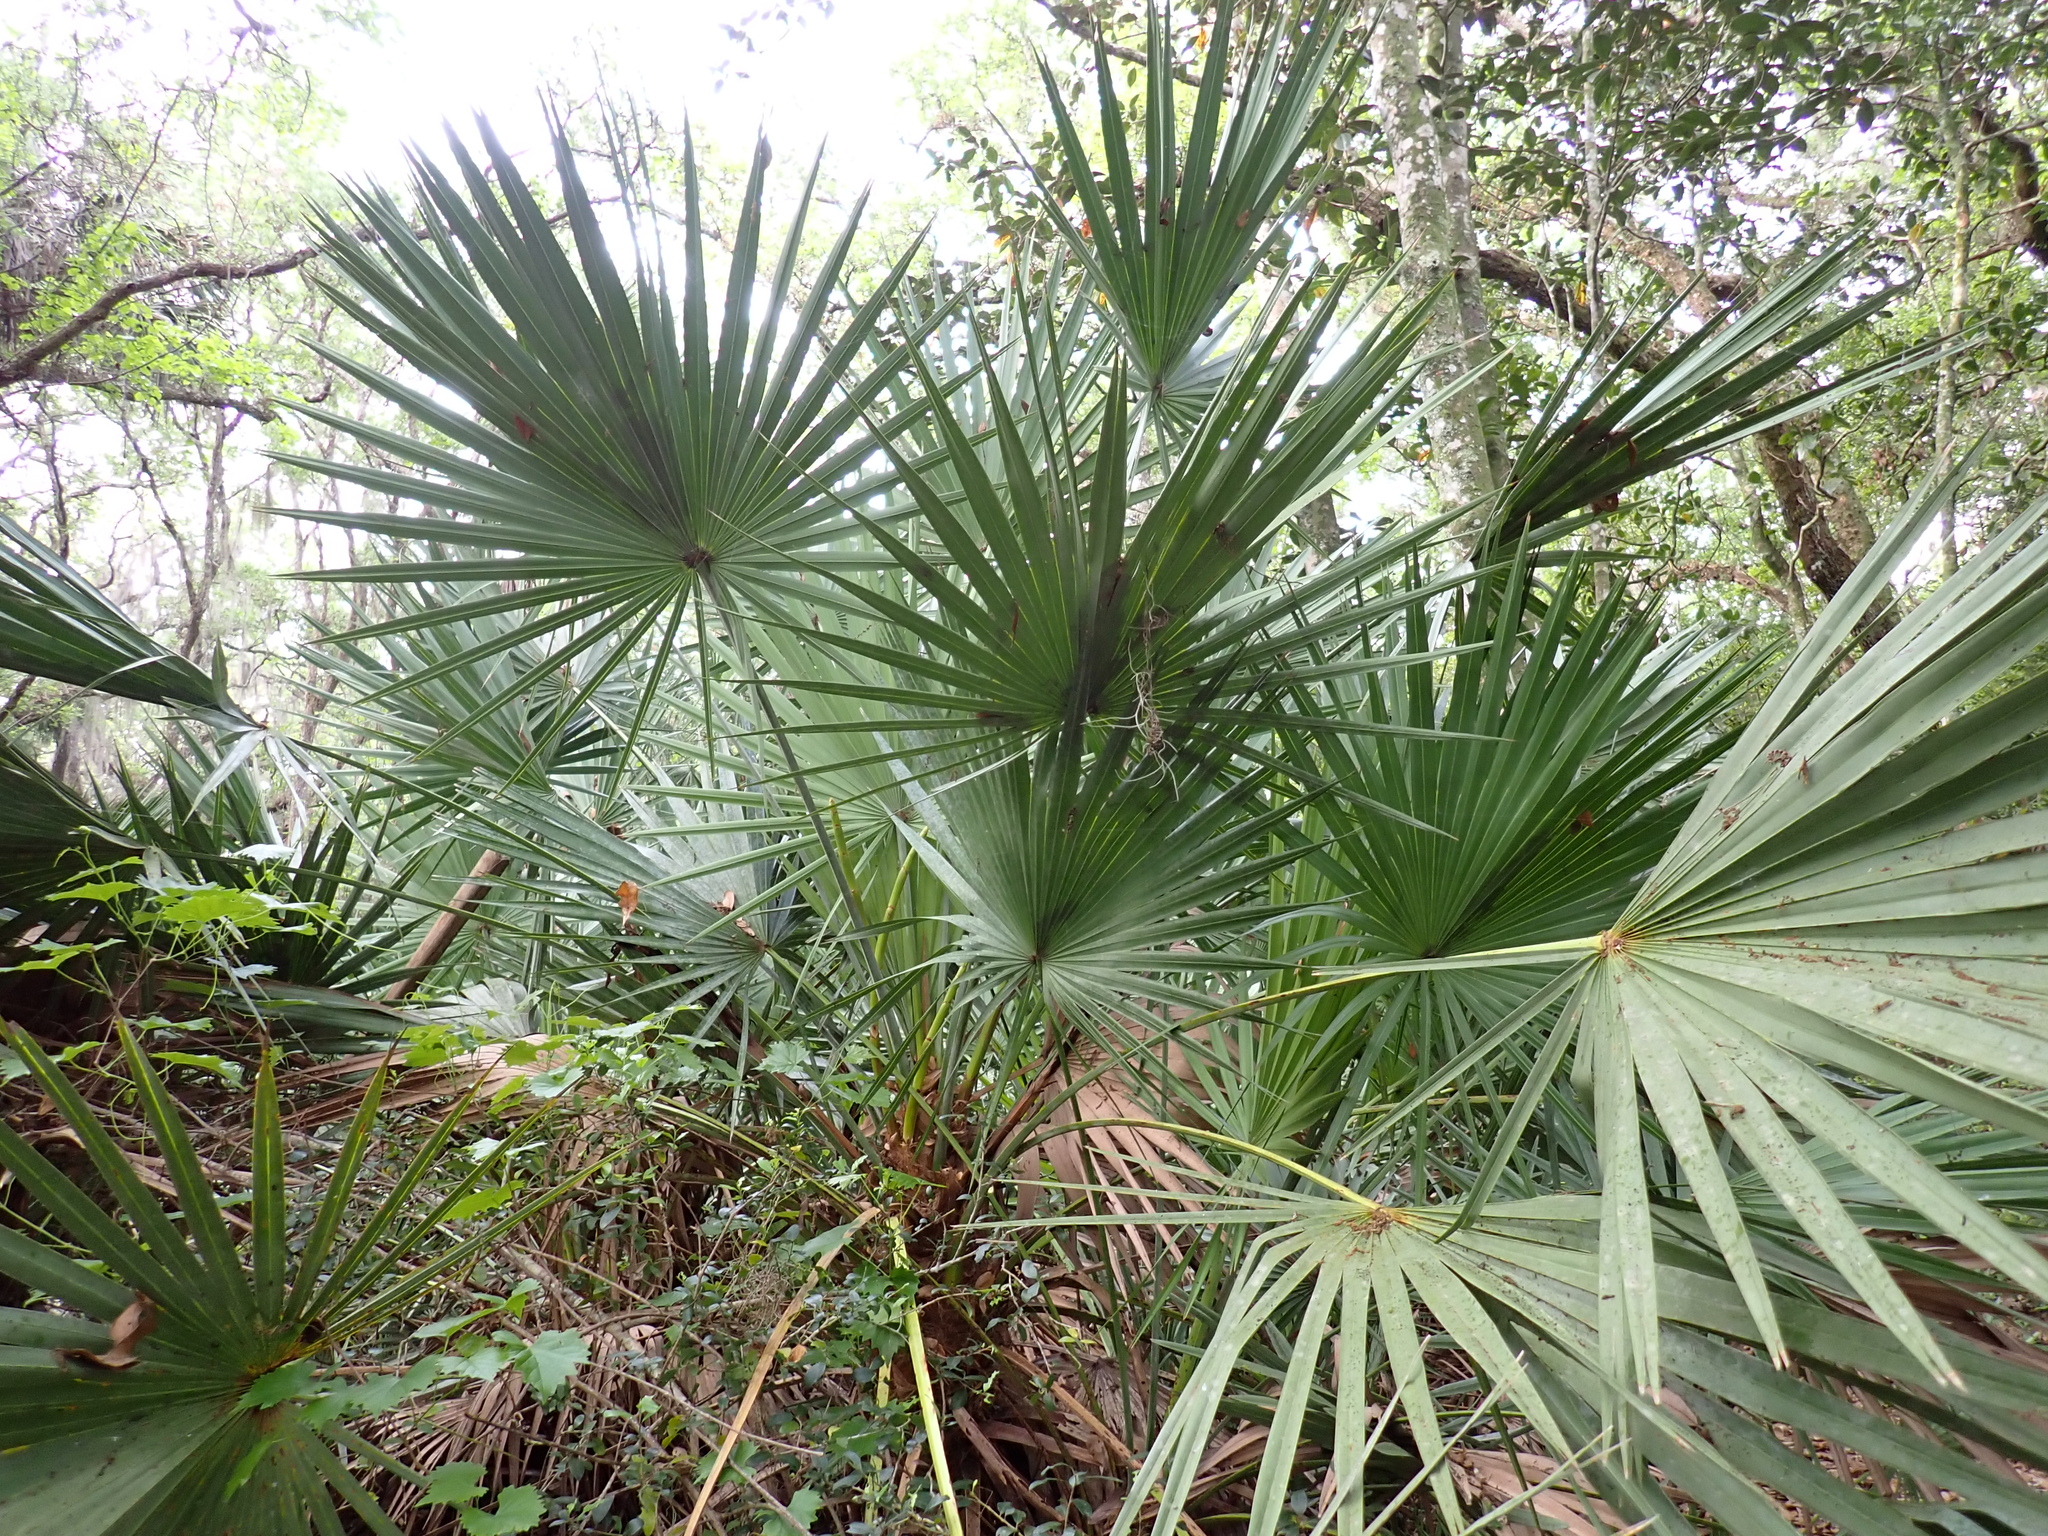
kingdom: Plantae
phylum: Tracheophyta
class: Liliopsida
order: Arecales
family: Arecaceae
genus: Serenoa
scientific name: Serenoa repens
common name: Saw-palmetto
